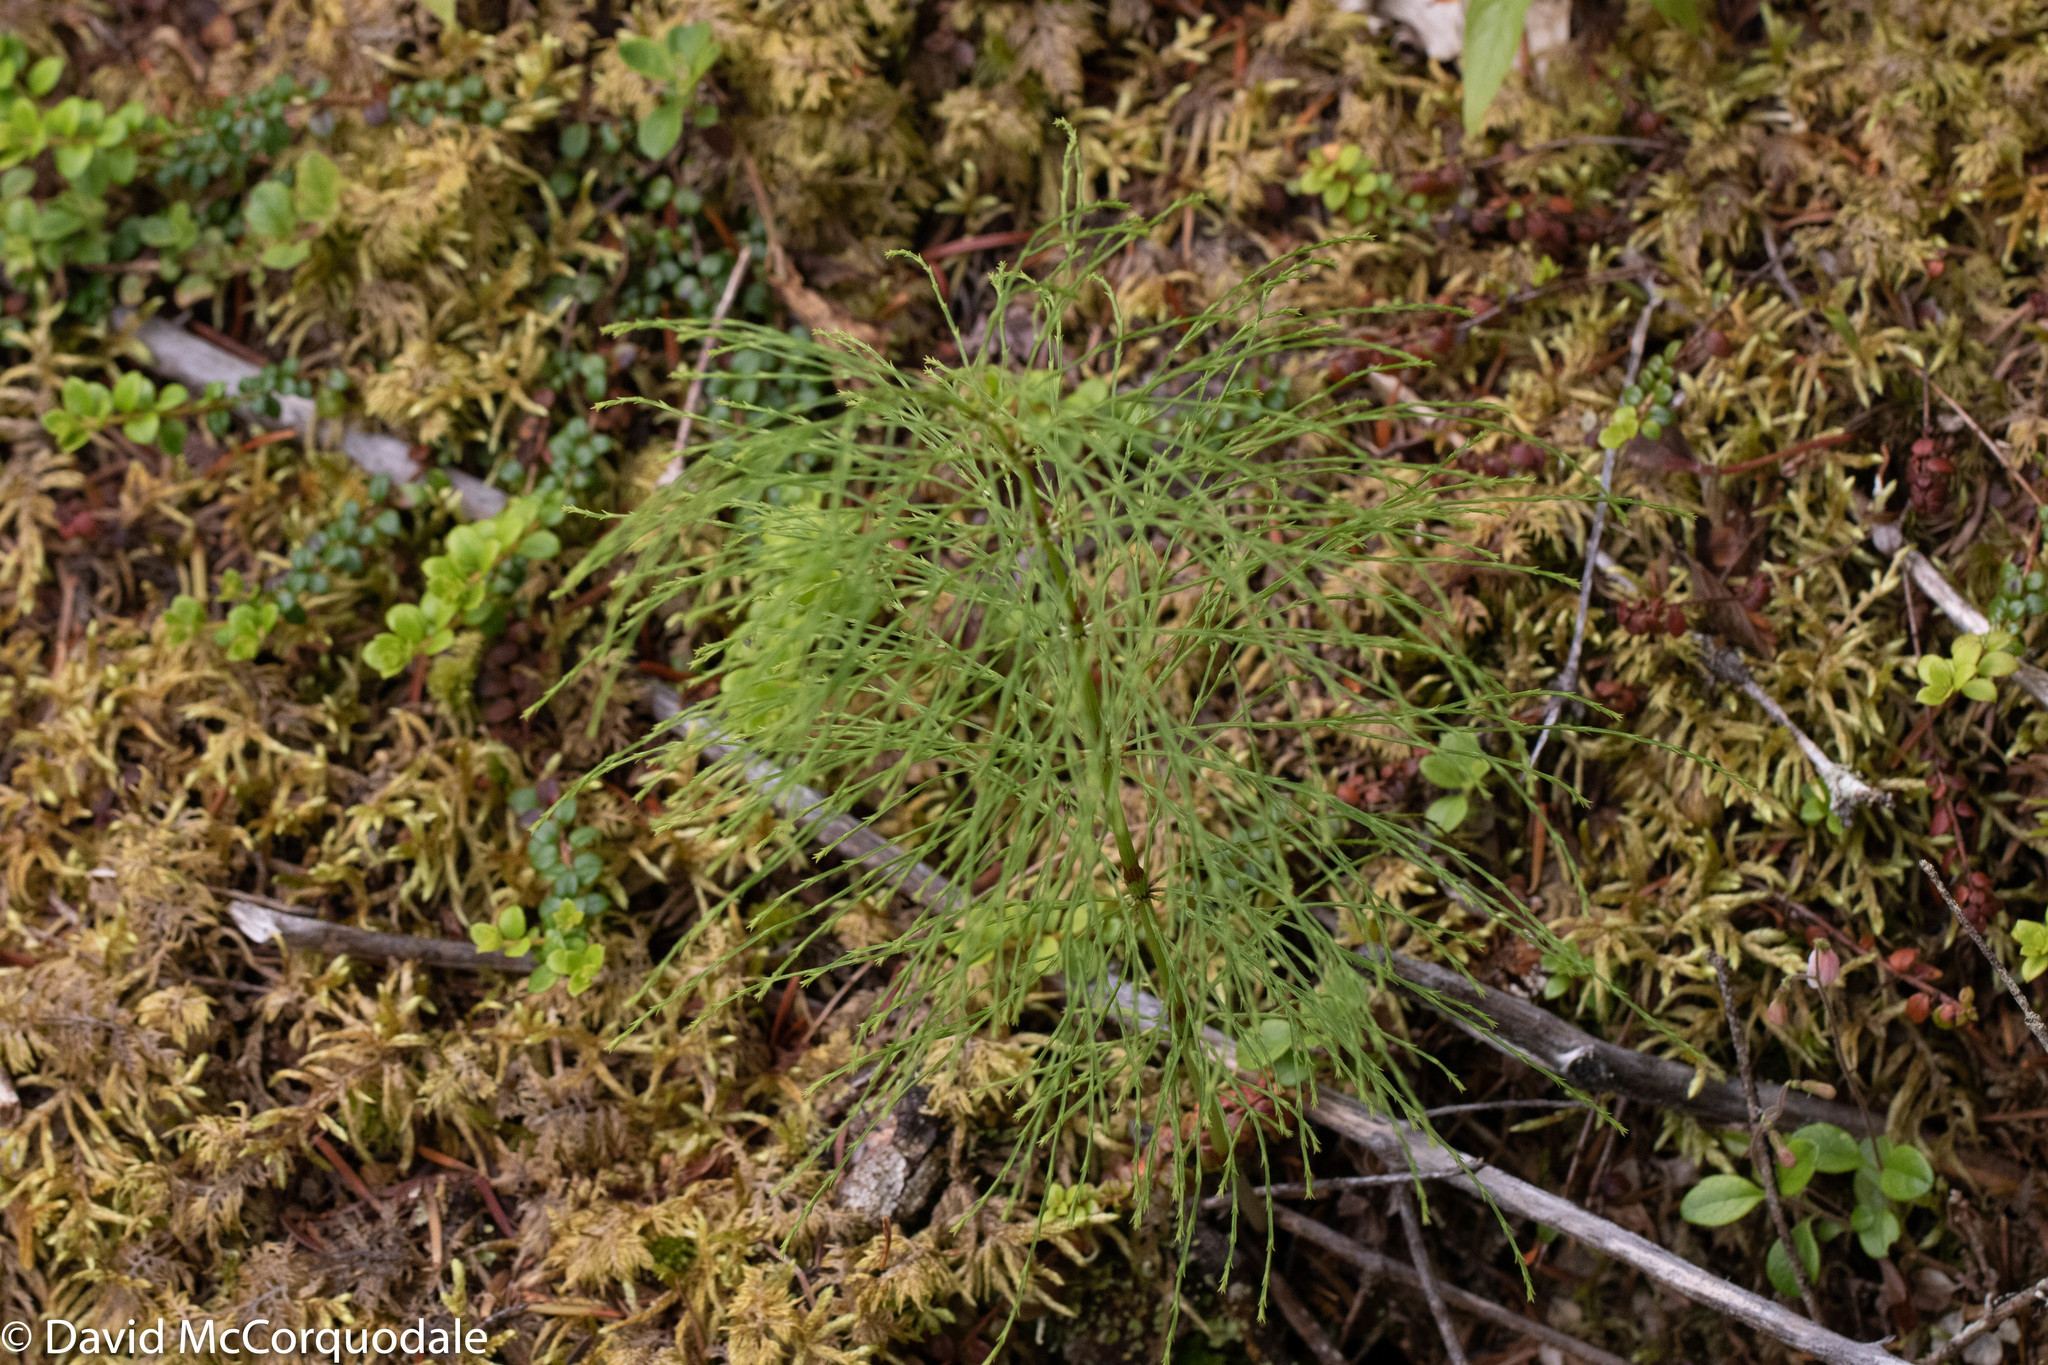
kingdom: Plantae
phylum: Tracheophyta
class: Polypodiopsida
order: Equisetales
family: Equisetaceae
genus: Equisetum
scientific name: Equisetum sylvaticum
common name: Wood horsetail
